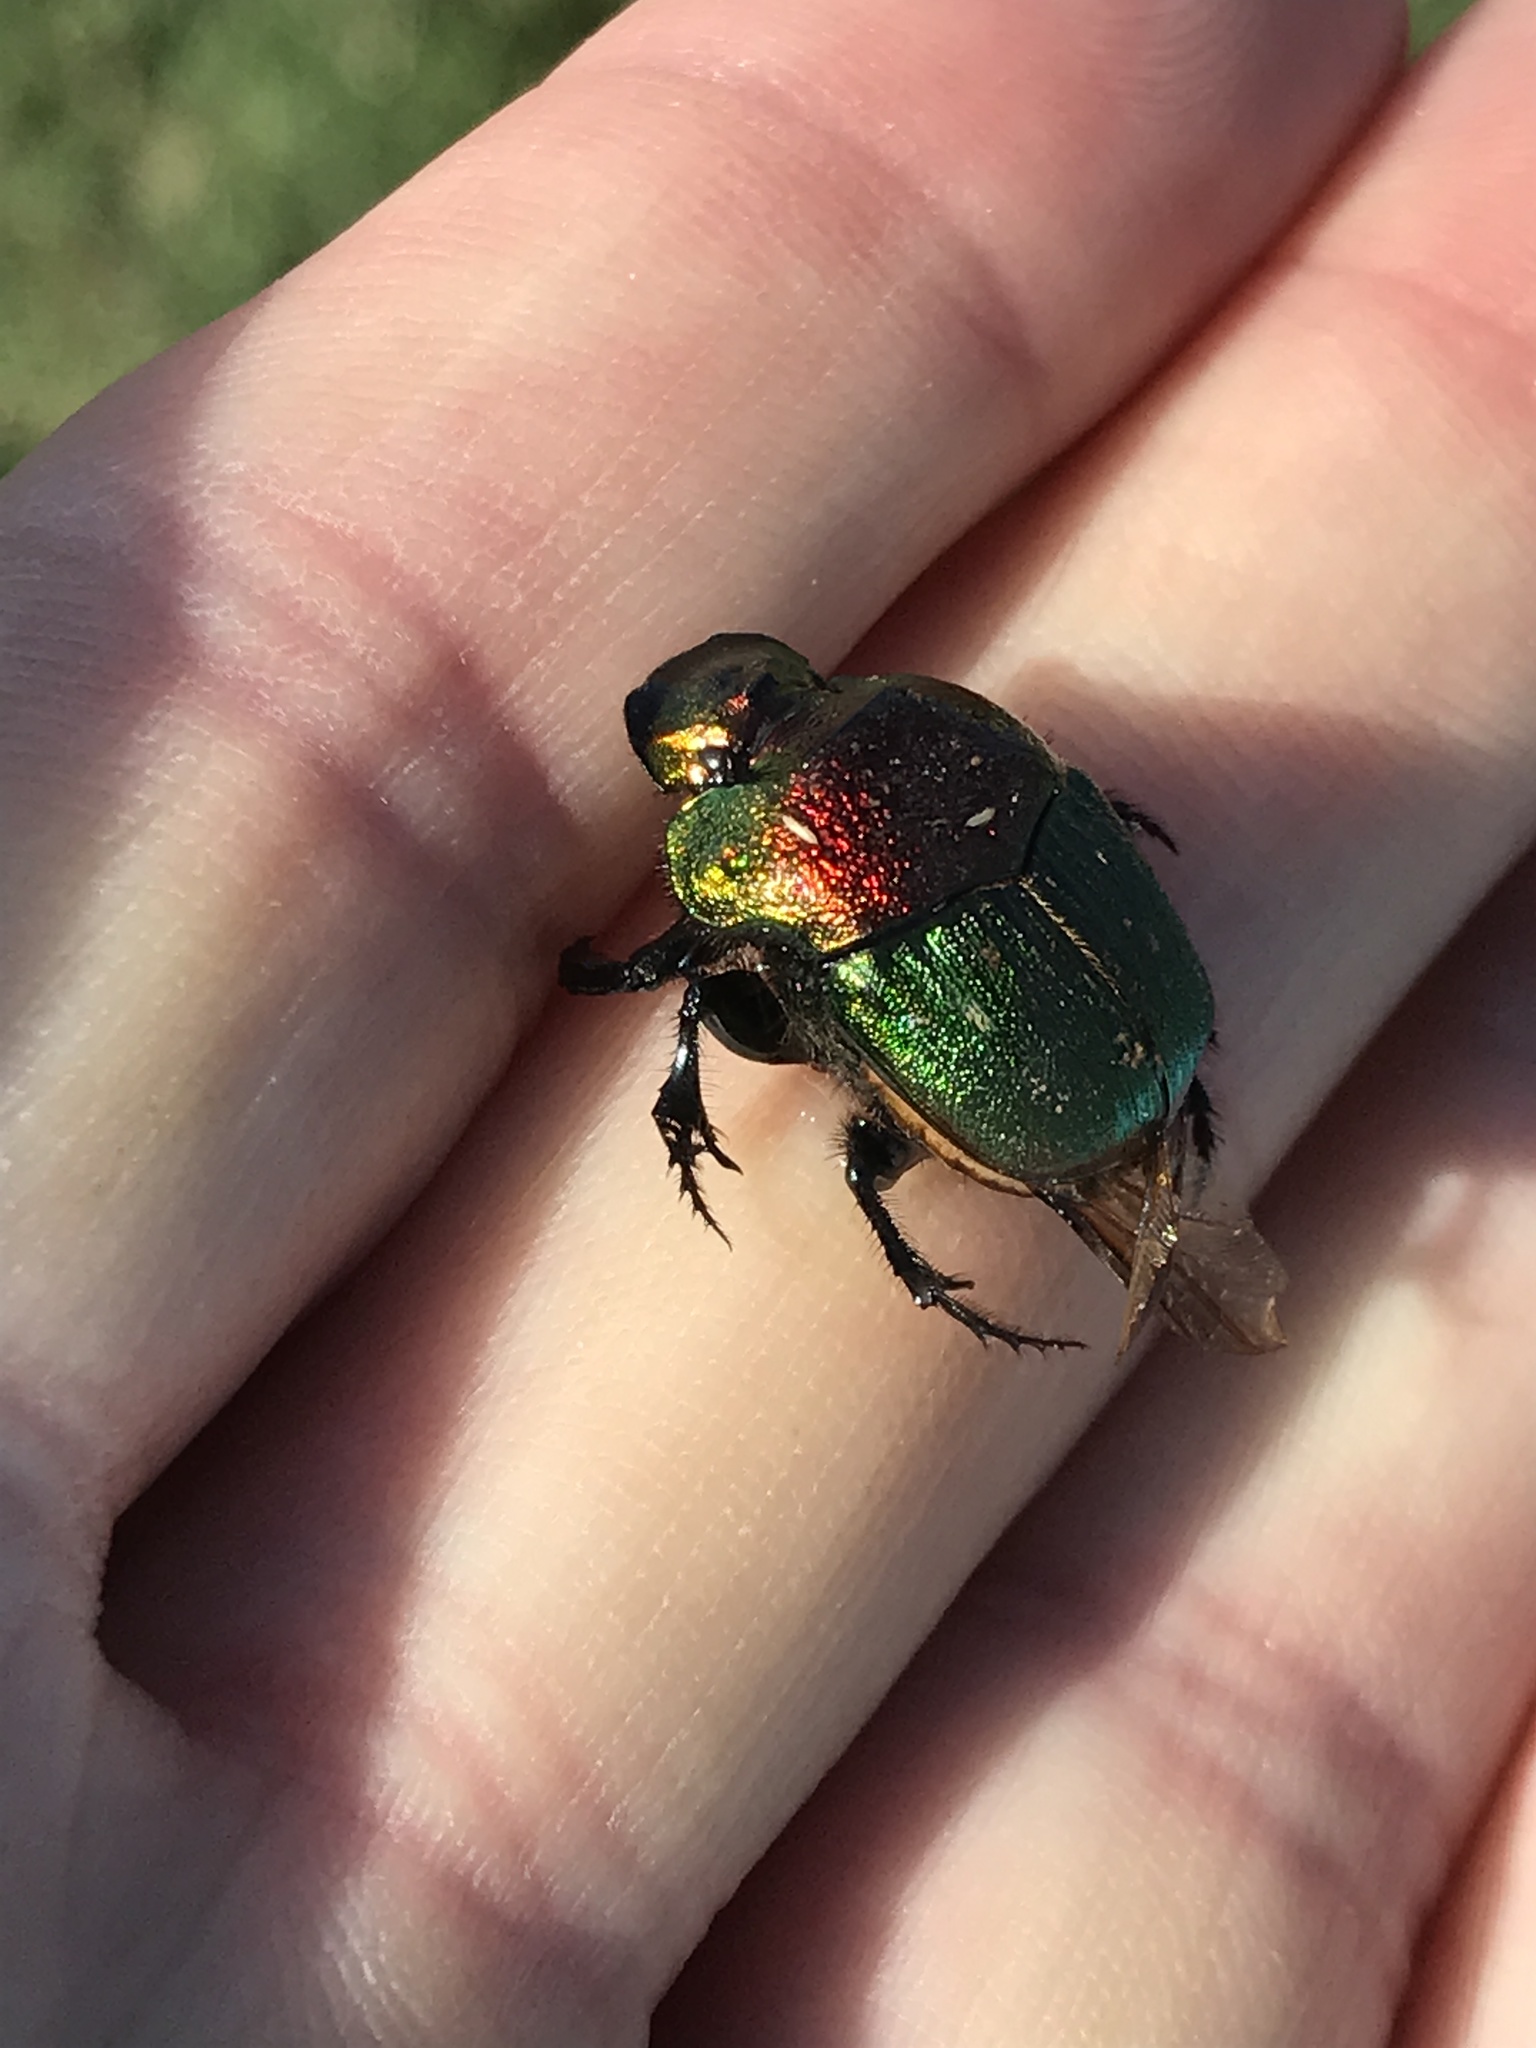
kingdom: Animalia
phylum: Arthropoda
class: Insecta
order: Coleoptera
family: Scarabaeidae
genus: Phanaeus
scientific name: Phanaeus vindex
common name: Rainbow scarab
